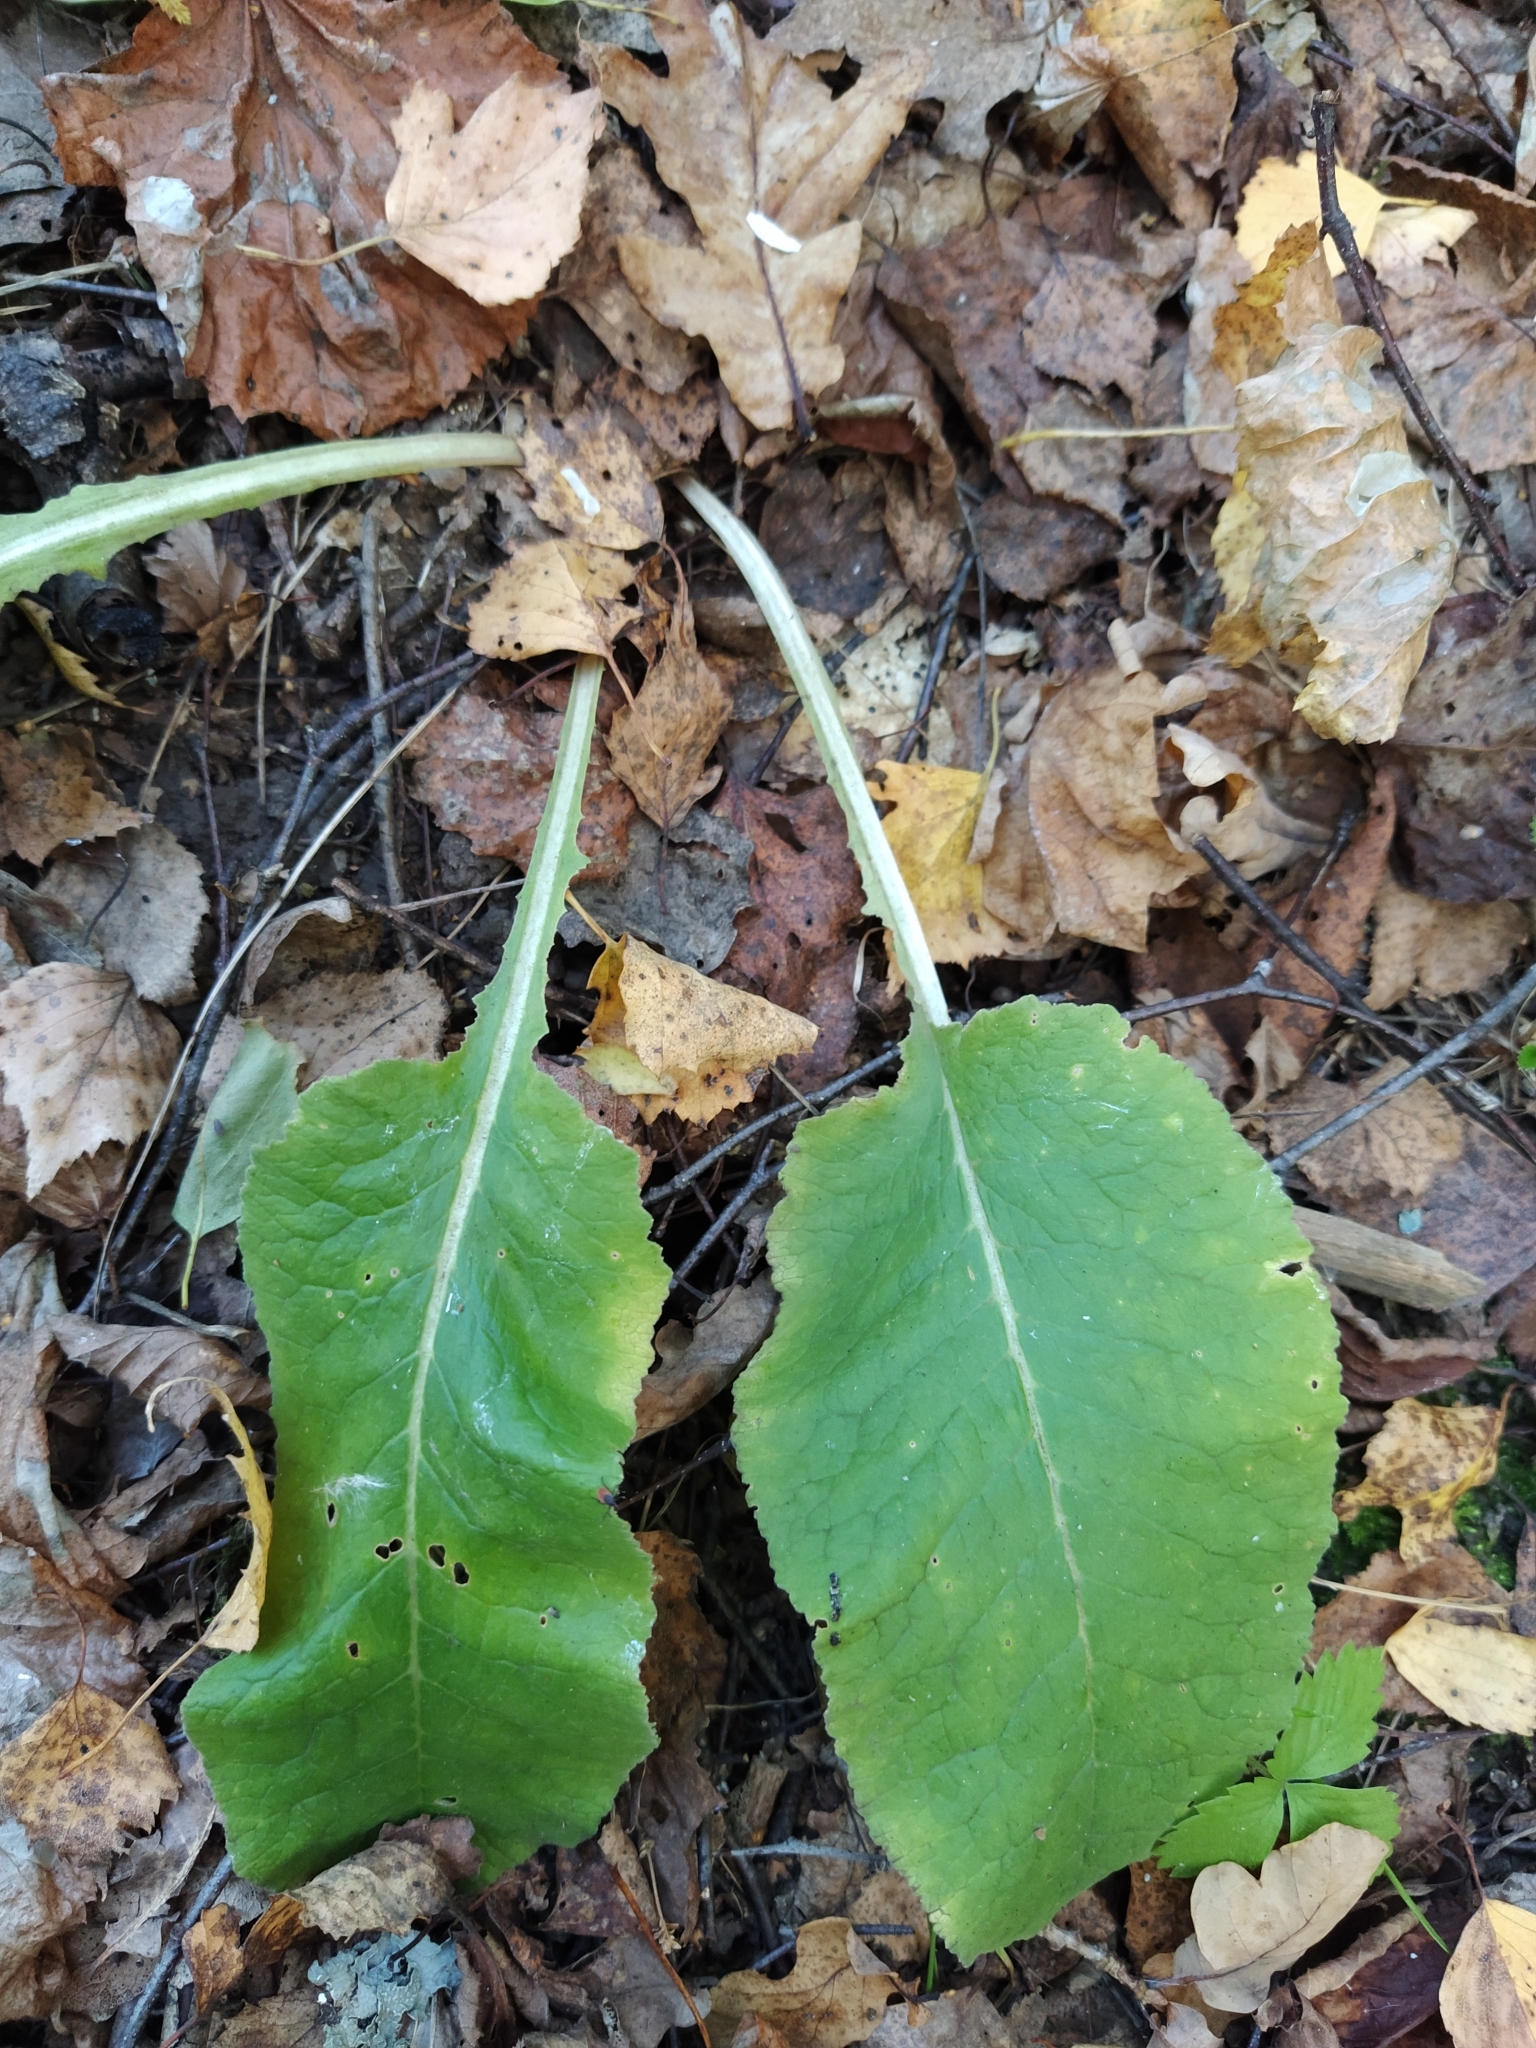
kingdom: Plantae
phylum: Tracheophyta
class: Magnoliopsida
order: Ericales
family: Primulaceae
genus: Primula
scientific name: Primula veris
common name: Cowslip
